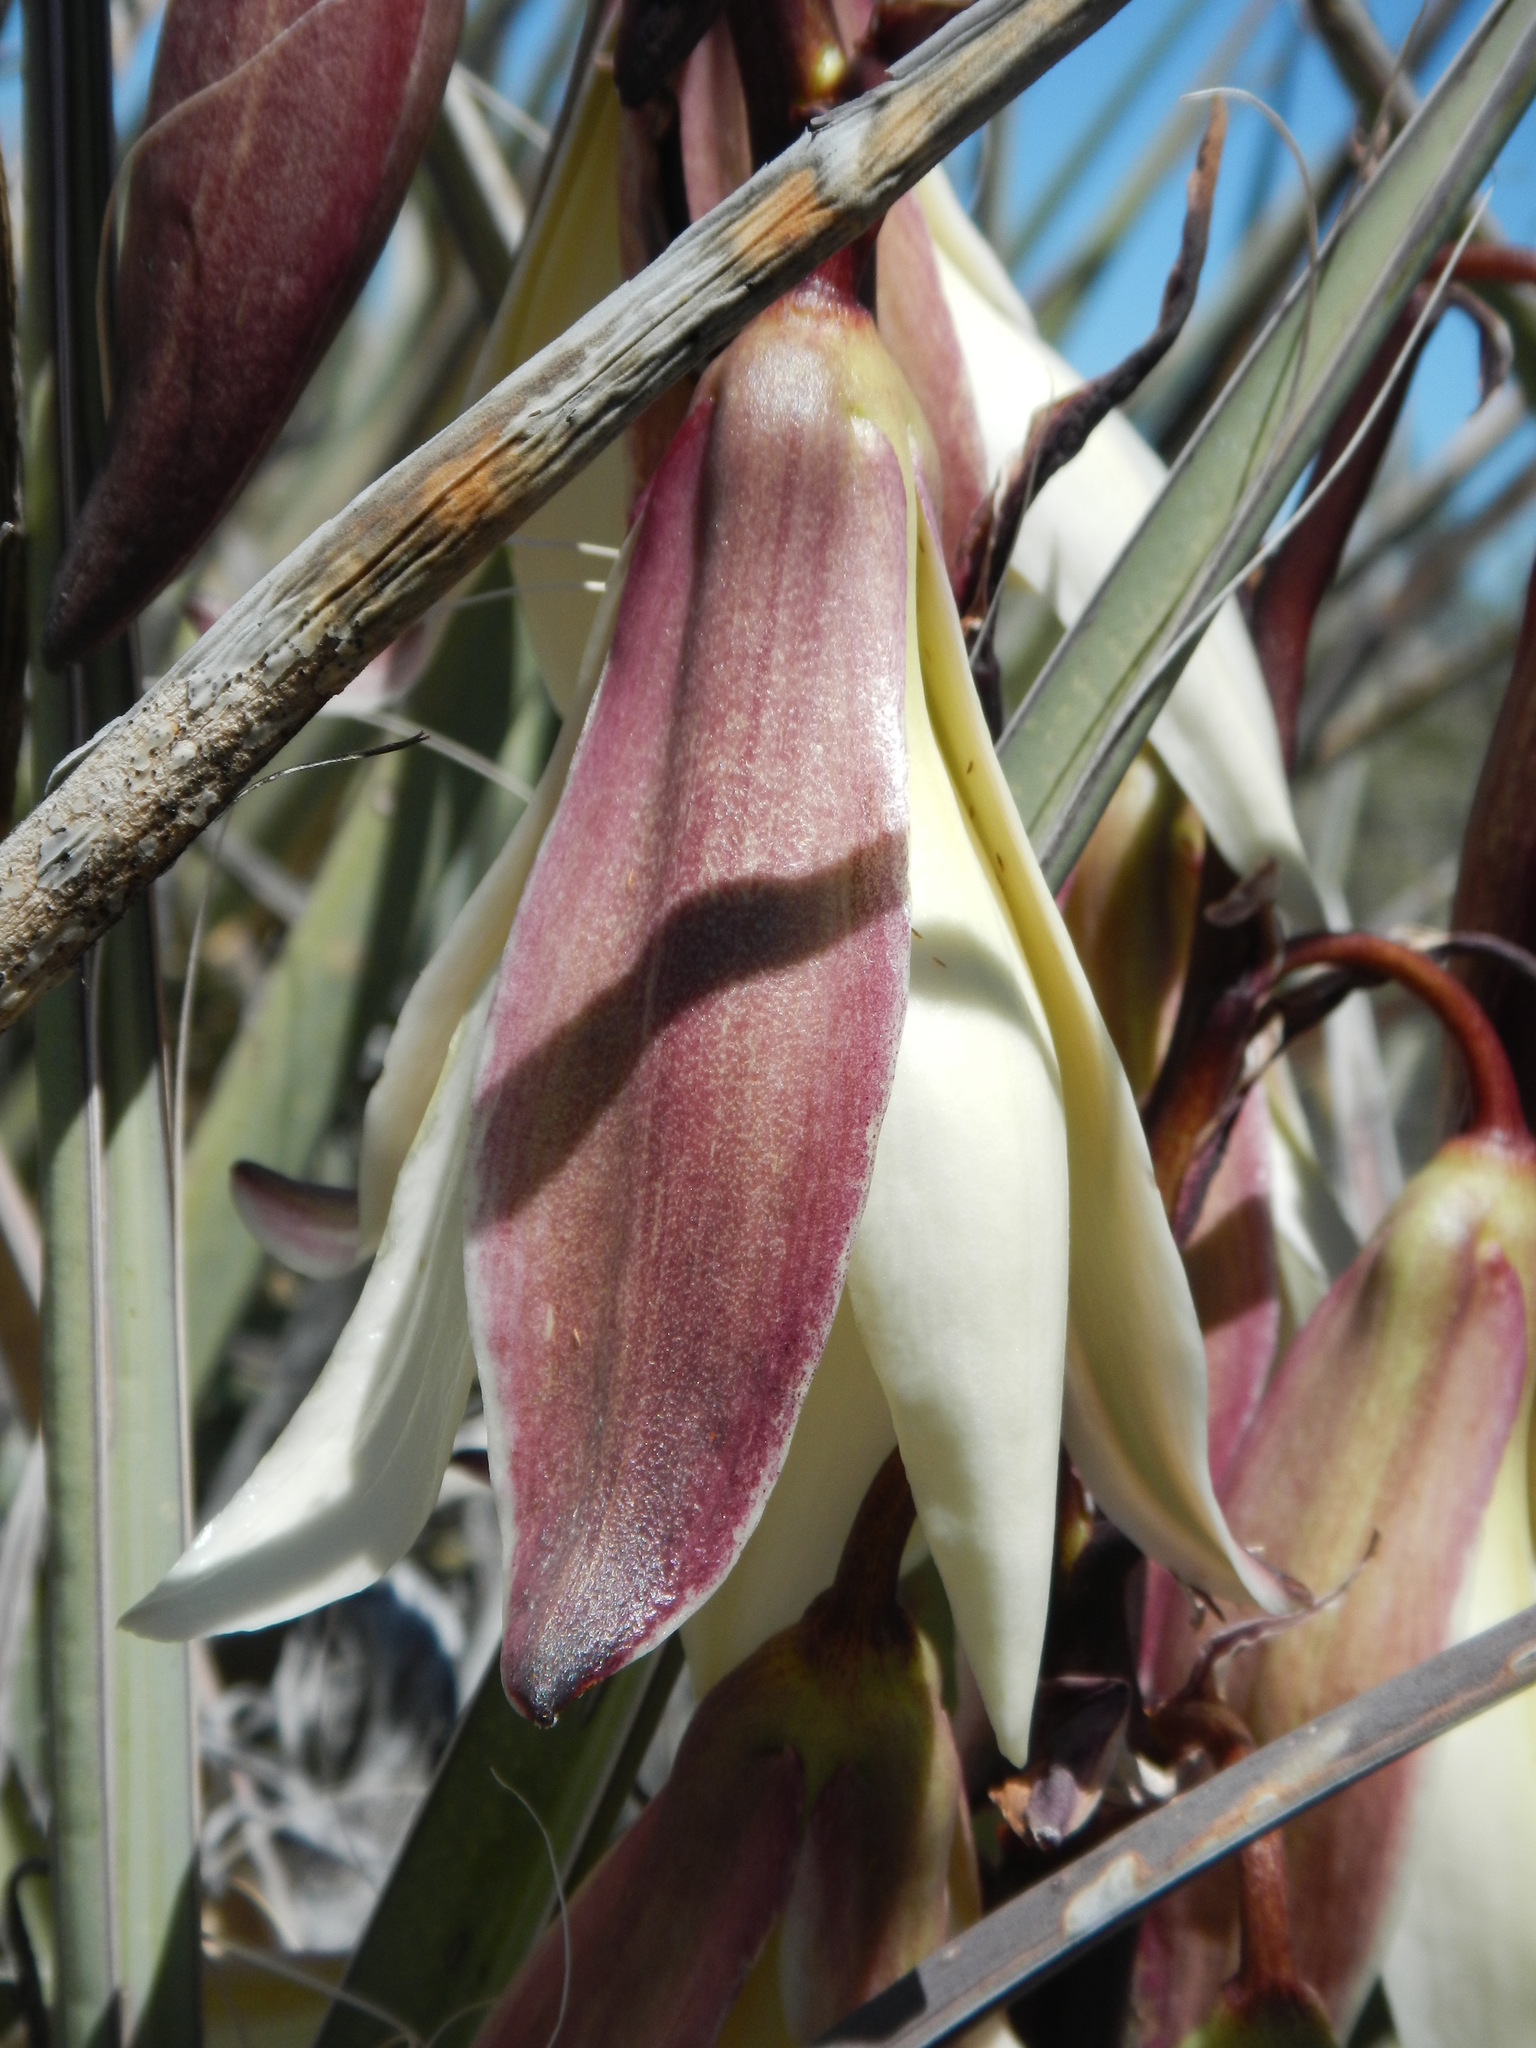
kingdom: Plantae
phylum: Tracheophyta
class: Liliopsida
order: Asparagales
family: Asparagaceae
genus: Yucca
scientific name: Yucca baccata
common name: Banana yucca
